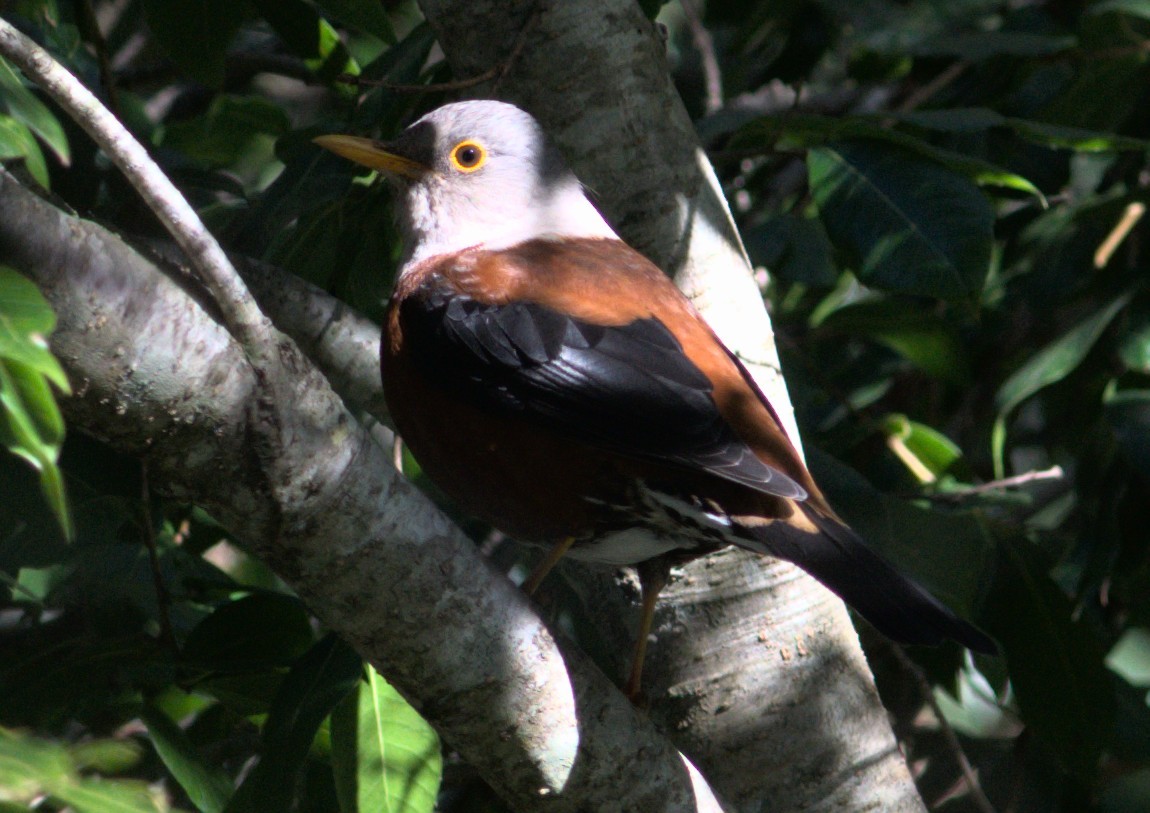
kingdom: Animalia
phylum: Chordata
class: Aves
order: Passeriformes
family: Turdidae
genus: Turdus
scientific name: Turdus rubrocanus
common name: Chestnut thrush
